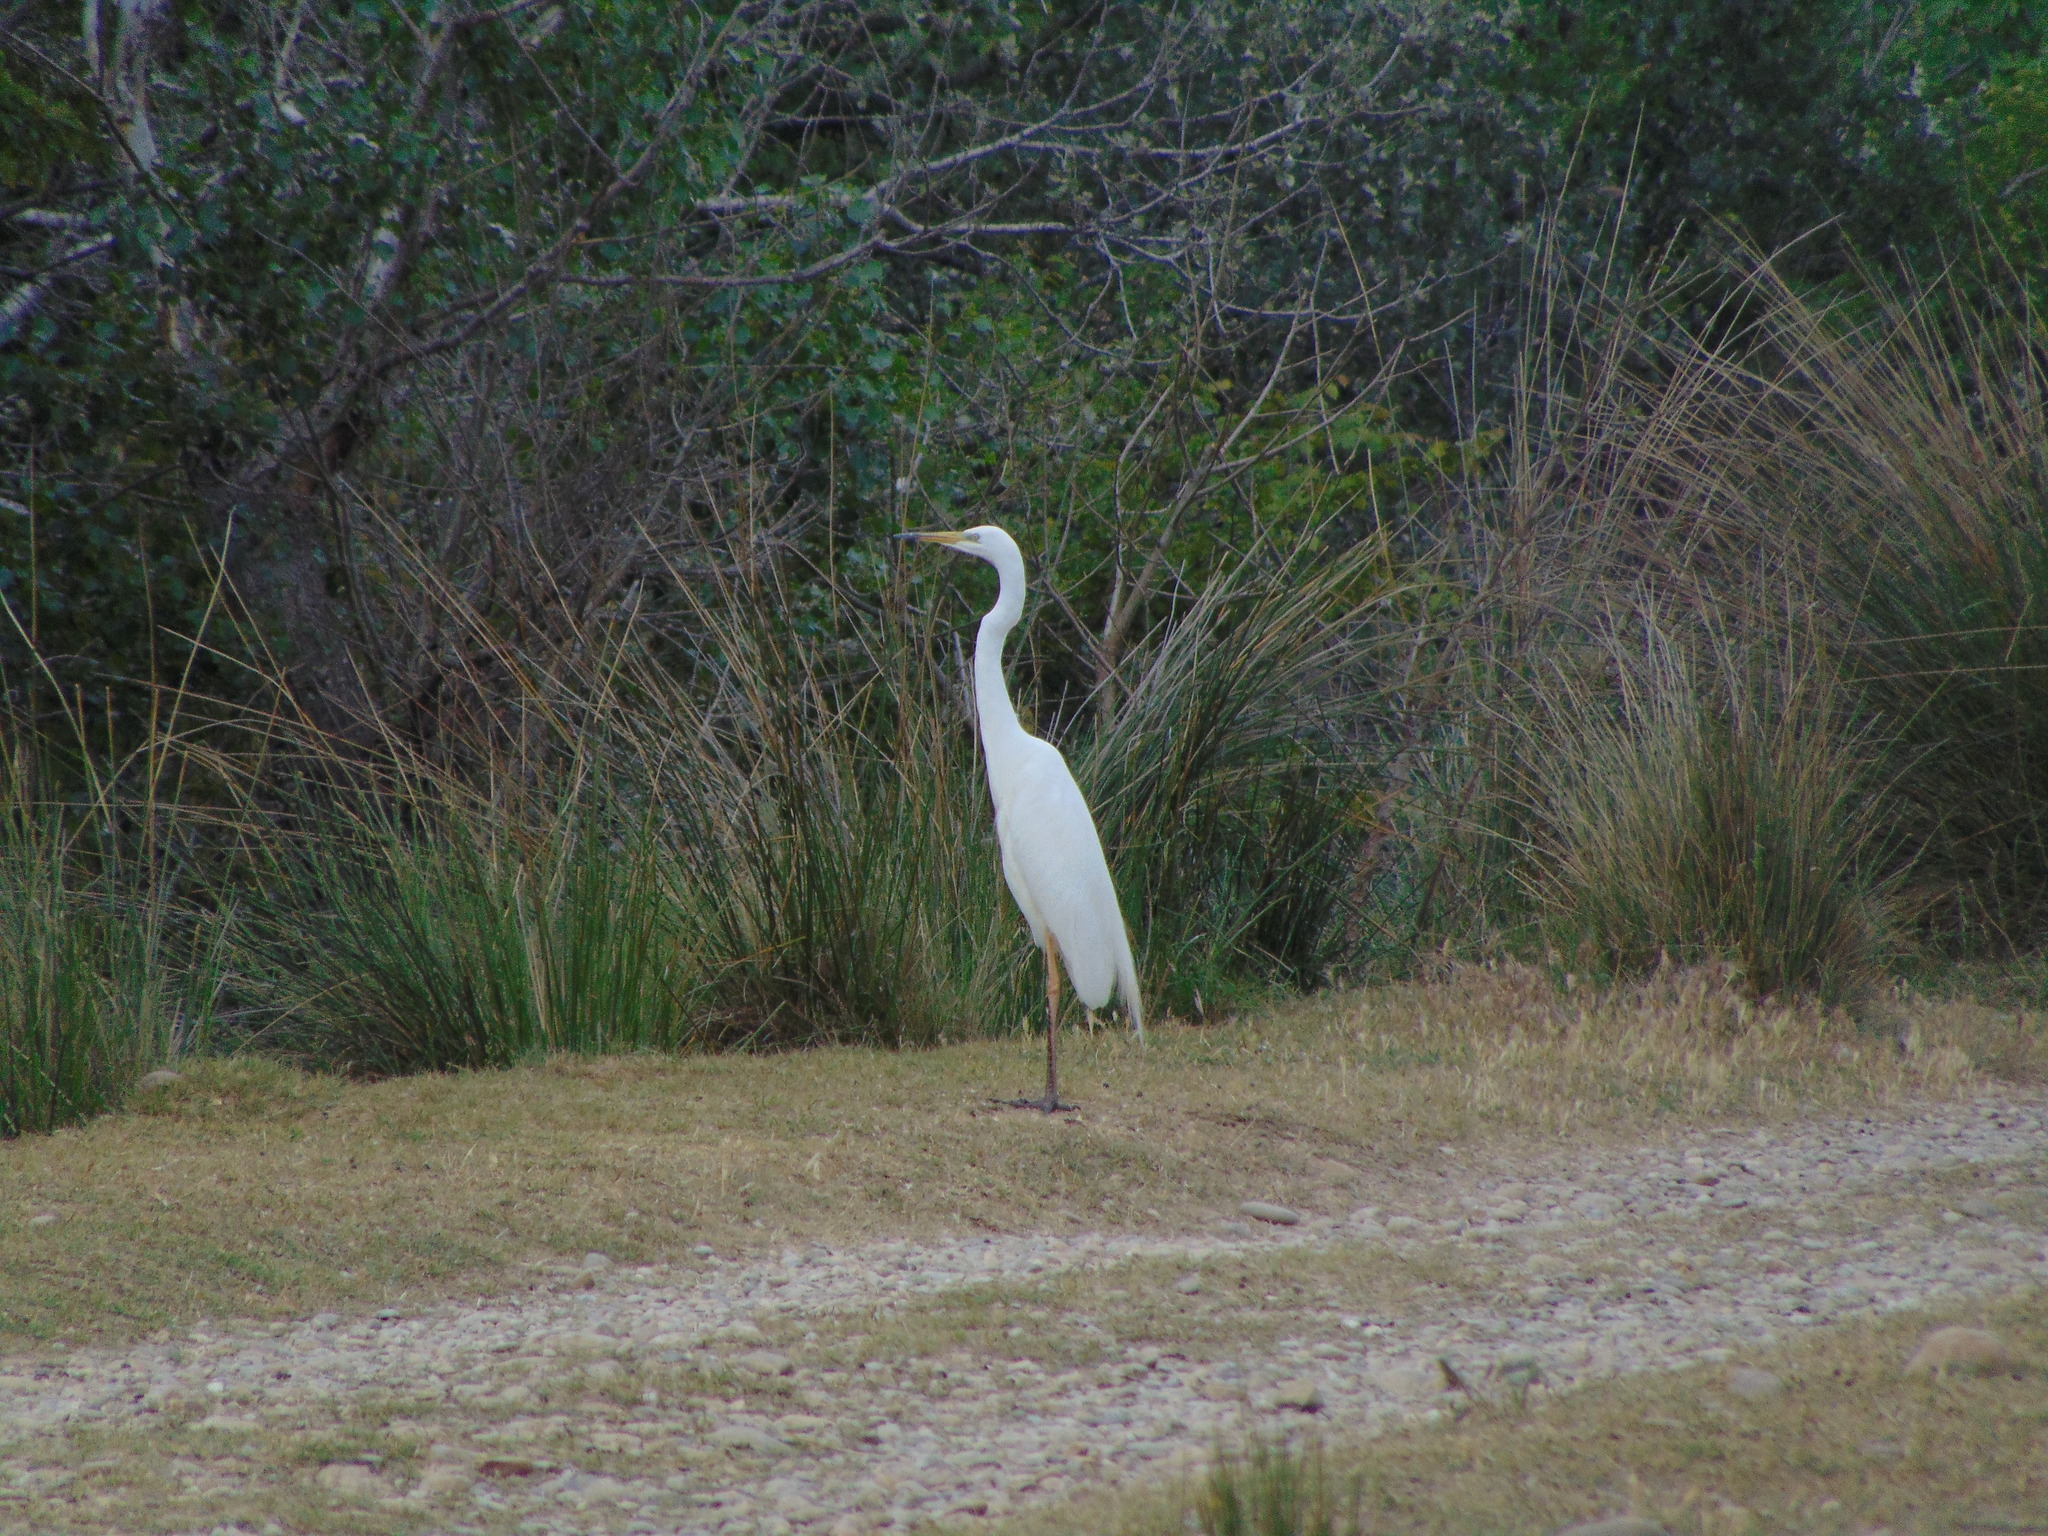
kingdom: Animalia
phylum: Chordata
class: Aves
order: Pelecaniformes
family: Ardeidae
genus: Ardea
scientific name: Ardea alba
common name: Great egret
